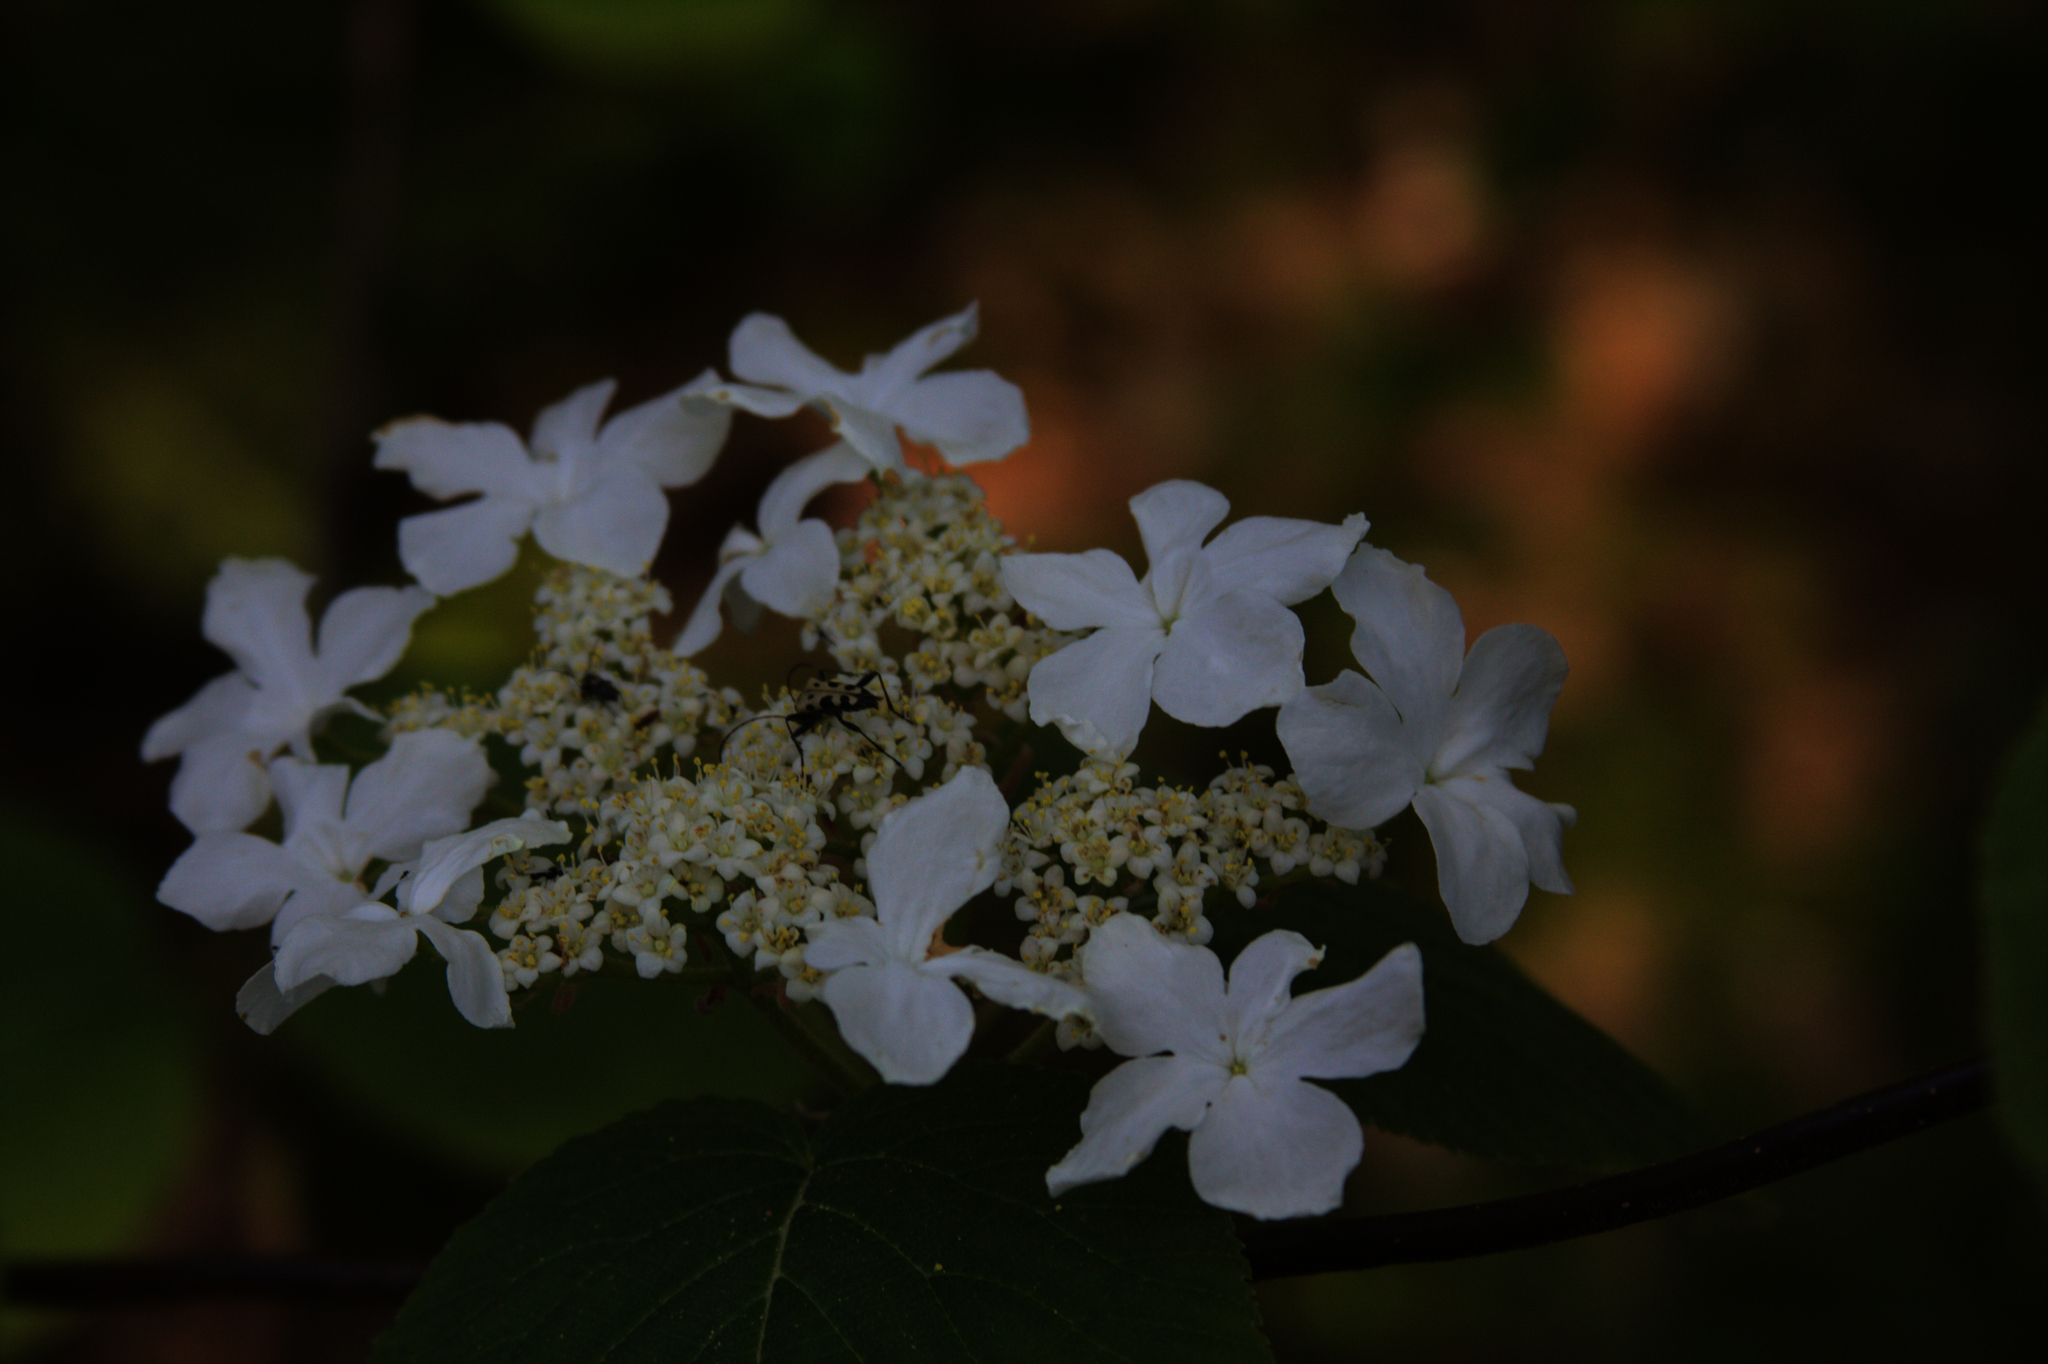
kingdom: Animalia
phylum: Arthropoda
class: Insecta
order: Coleoptera
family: Cerambycidae
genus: Evodinus
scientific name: Evodinus monticola
